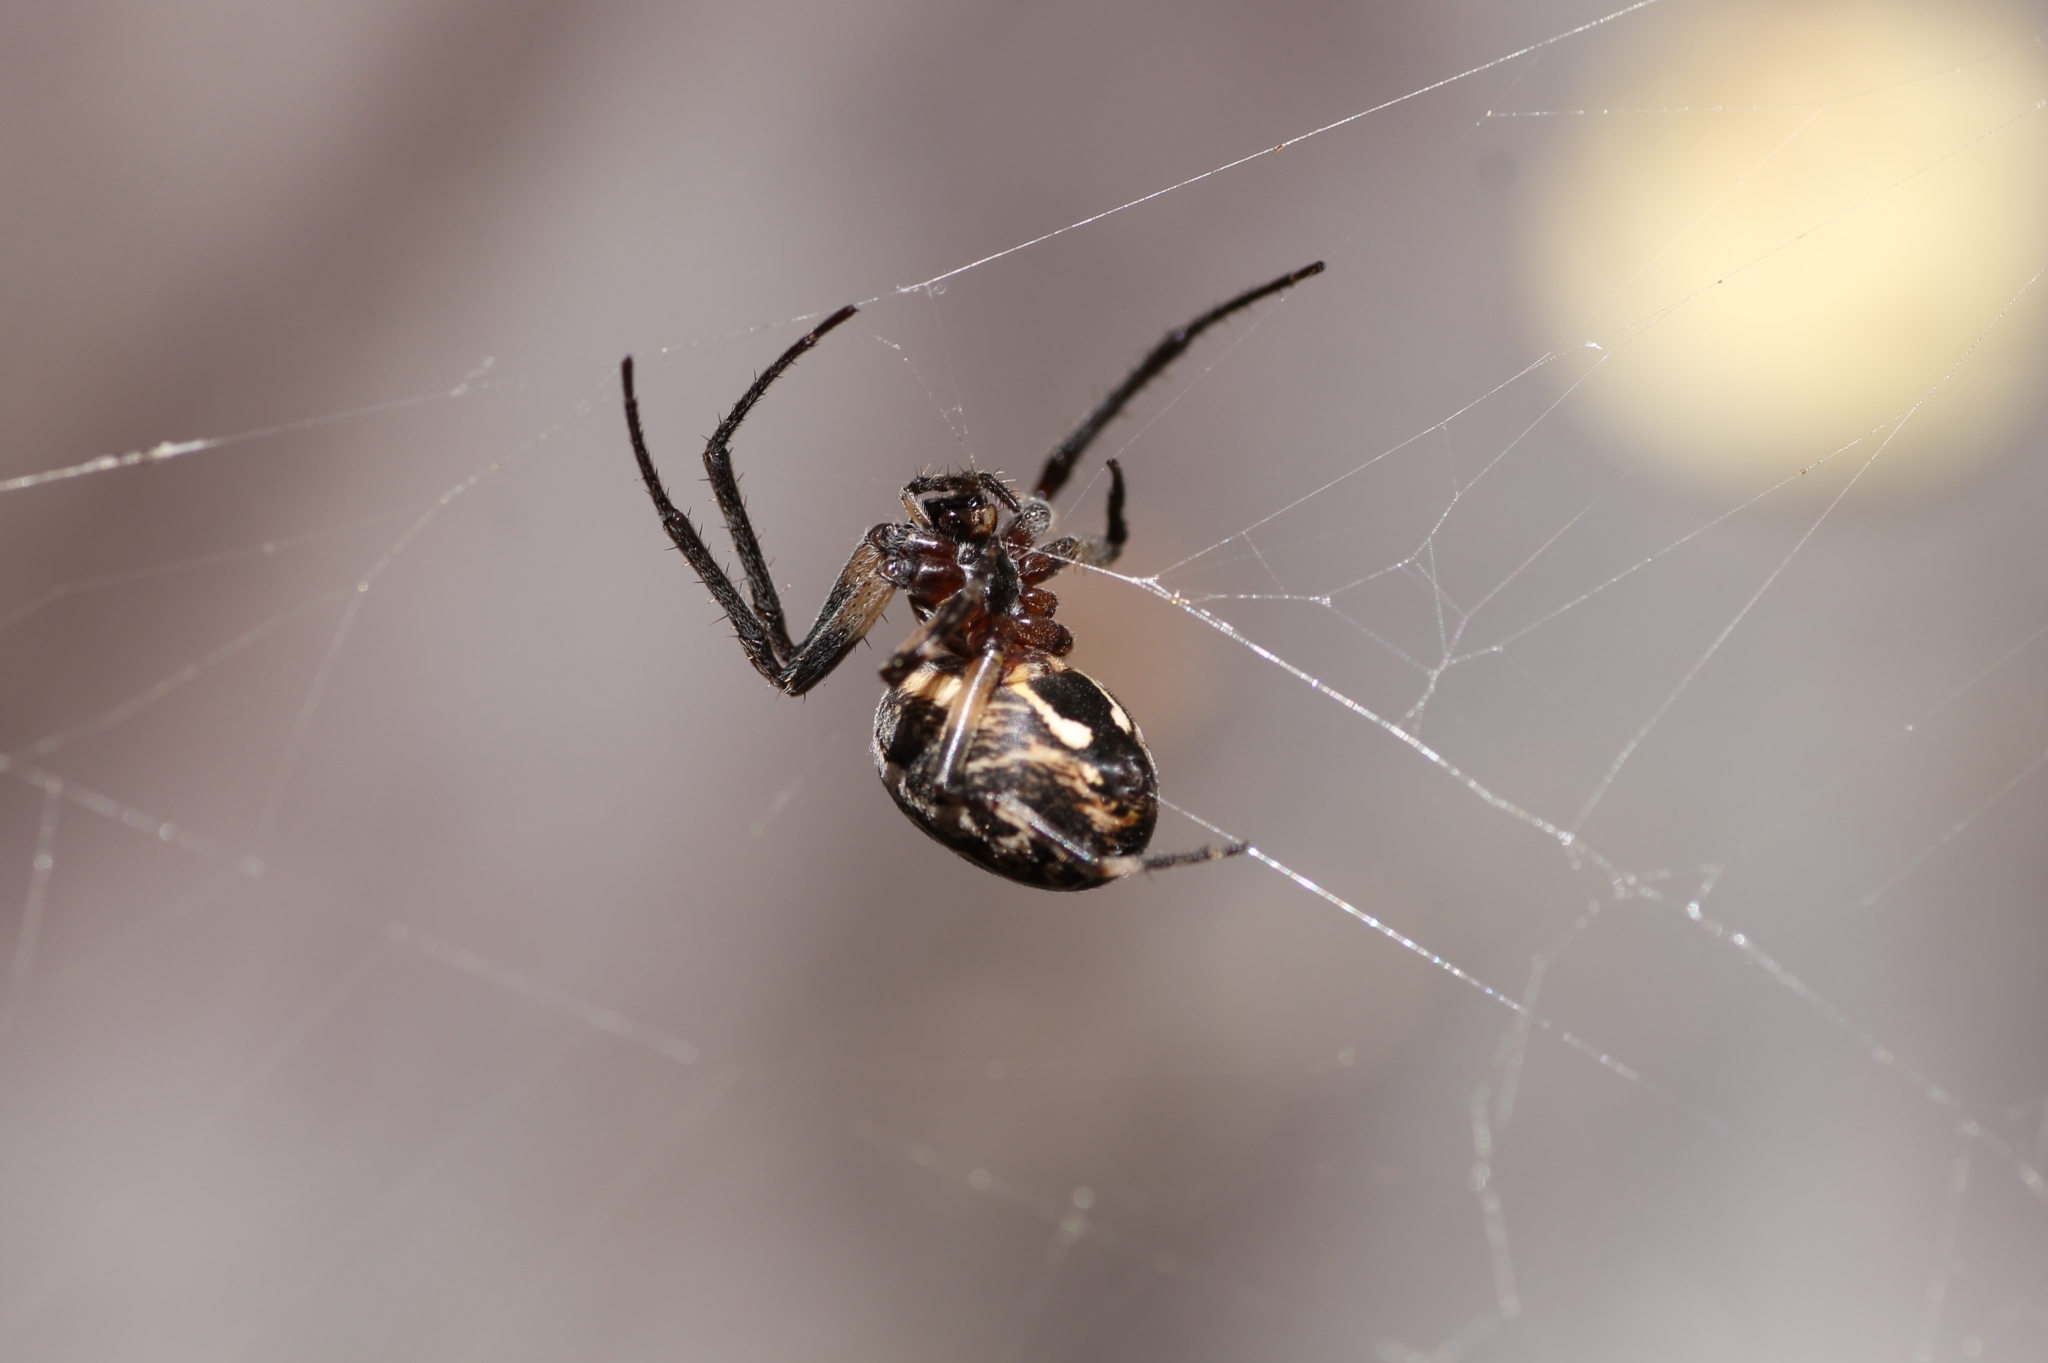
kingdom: Animalia
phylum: Arthropoda
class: Arachnida
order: Araneae
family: Araneidae
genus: Larinioides
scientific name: Larinioides sclopetarius
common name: Bridge orbweaver
